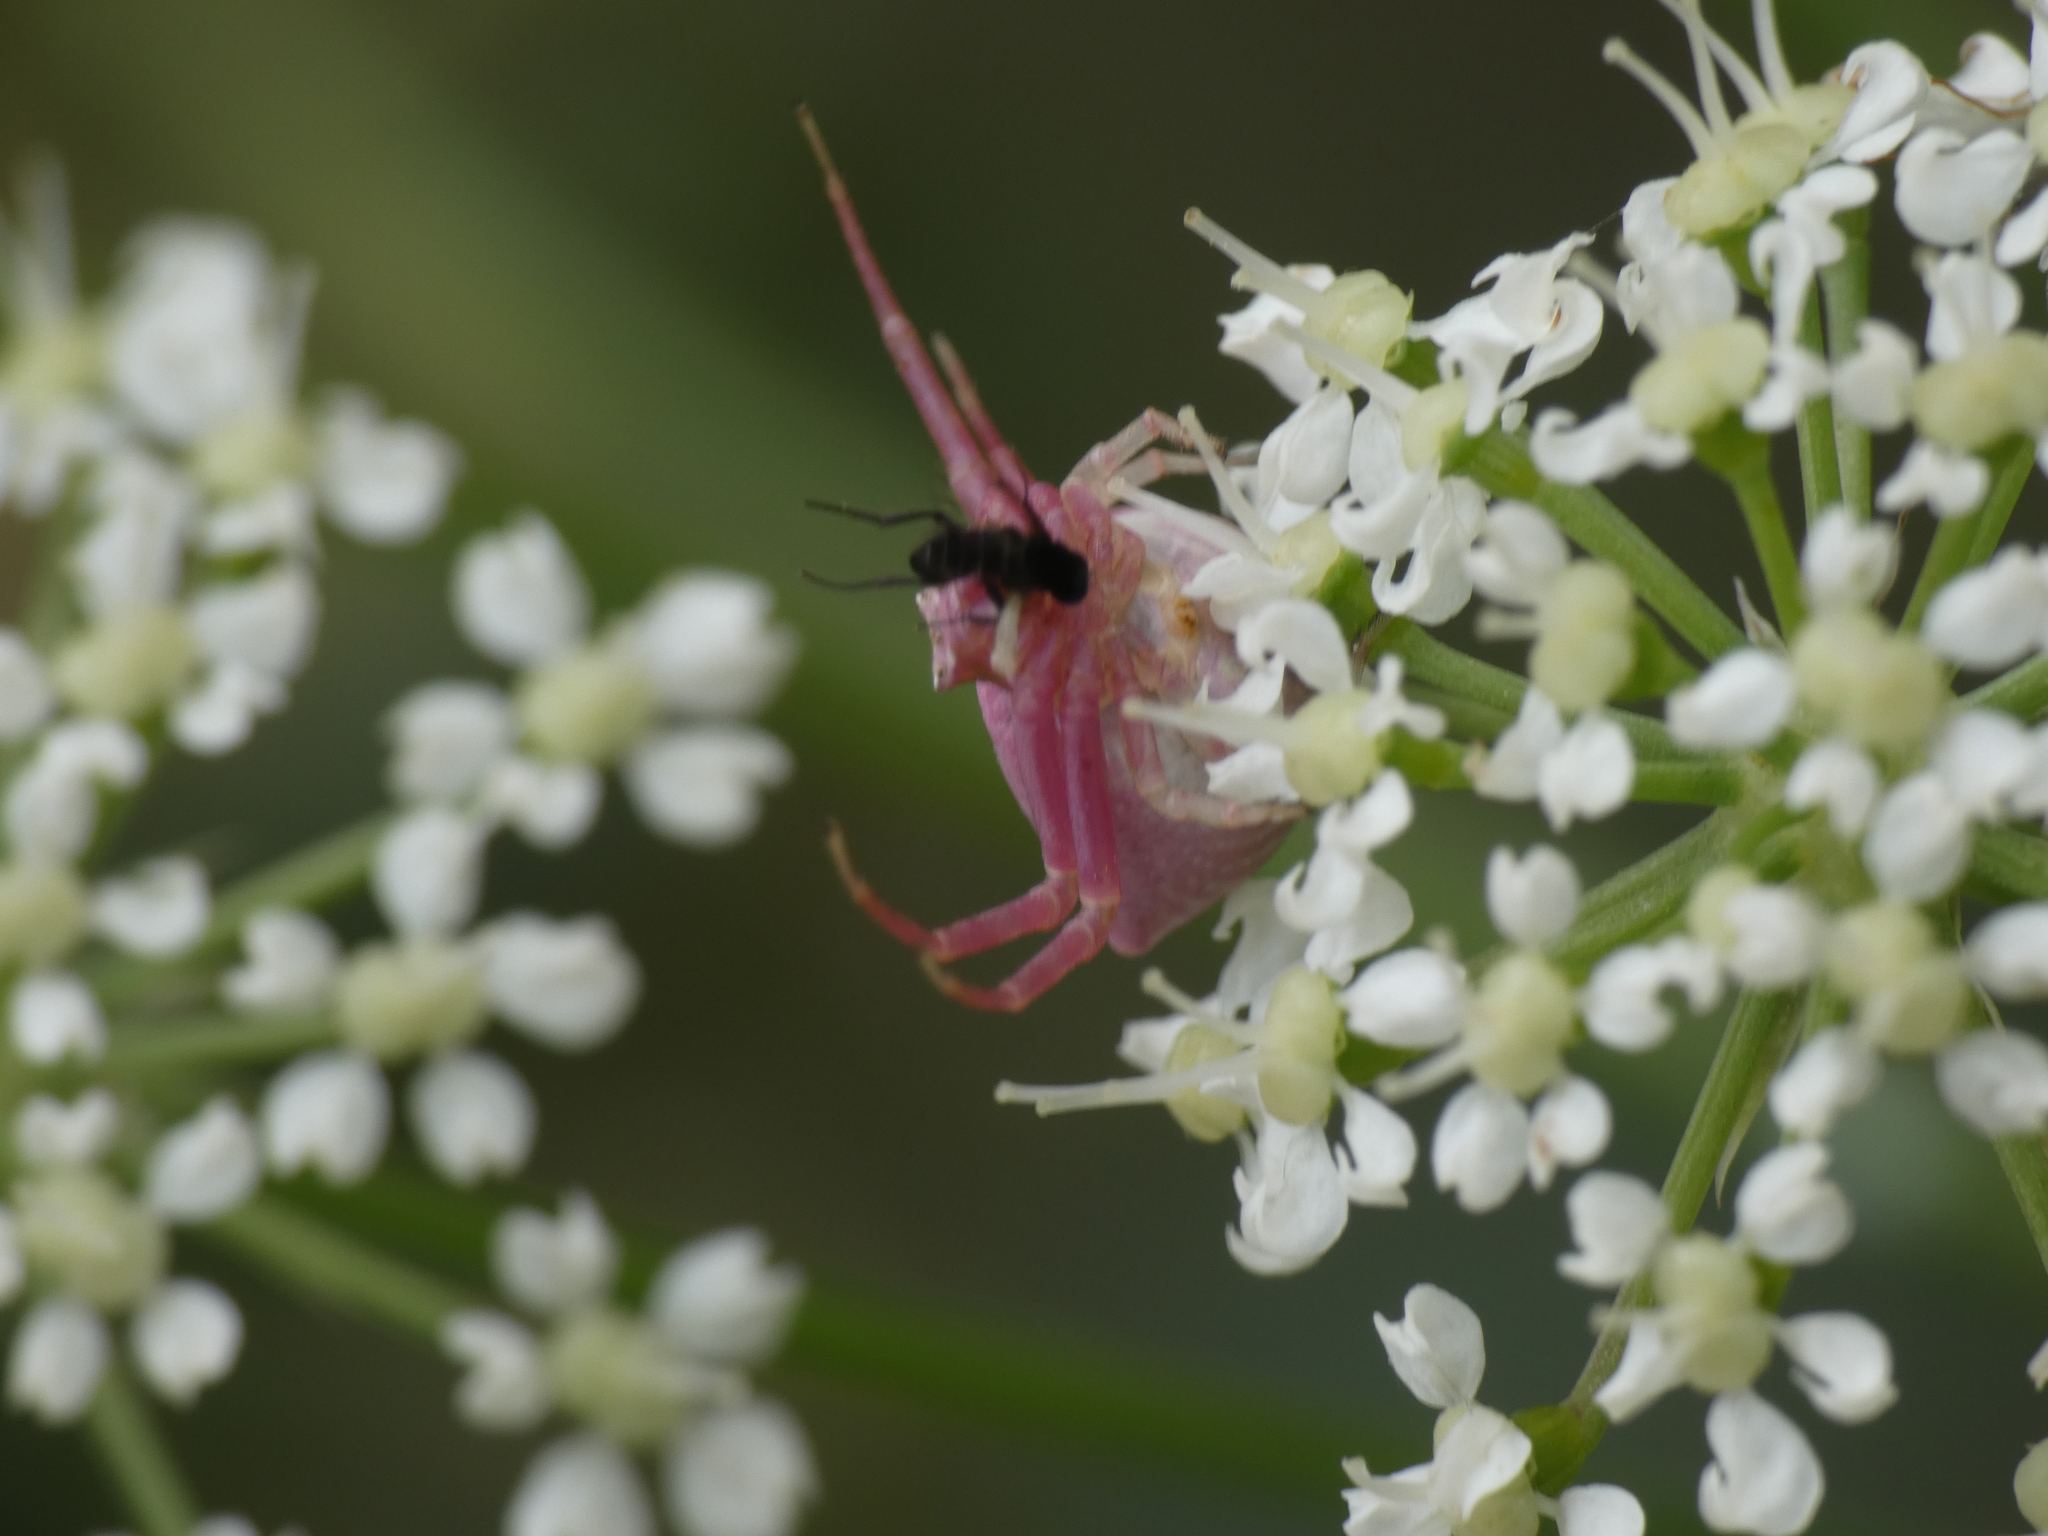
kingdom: Animalia
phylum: Arthropoda
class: Arachnida
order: Araneae
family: Thomisidae
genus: Thomisus
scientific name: Thomisus onustus
